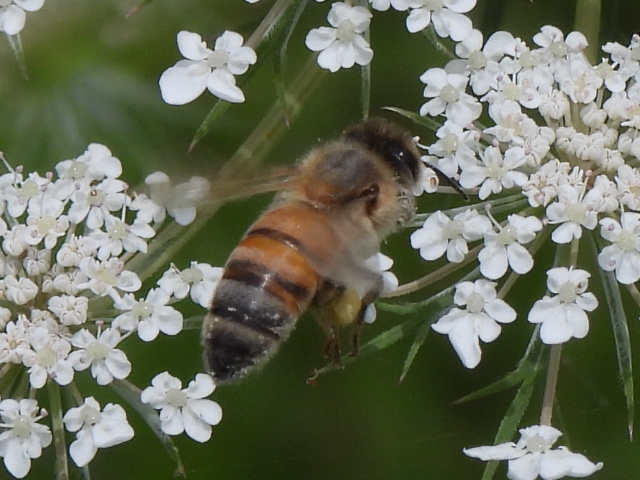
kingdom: Animalia
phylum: Arthropoda
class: Insecta
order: Hymenoptera
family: Apidae
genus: Apis
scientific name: Apis mellifera
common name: Honey bee
